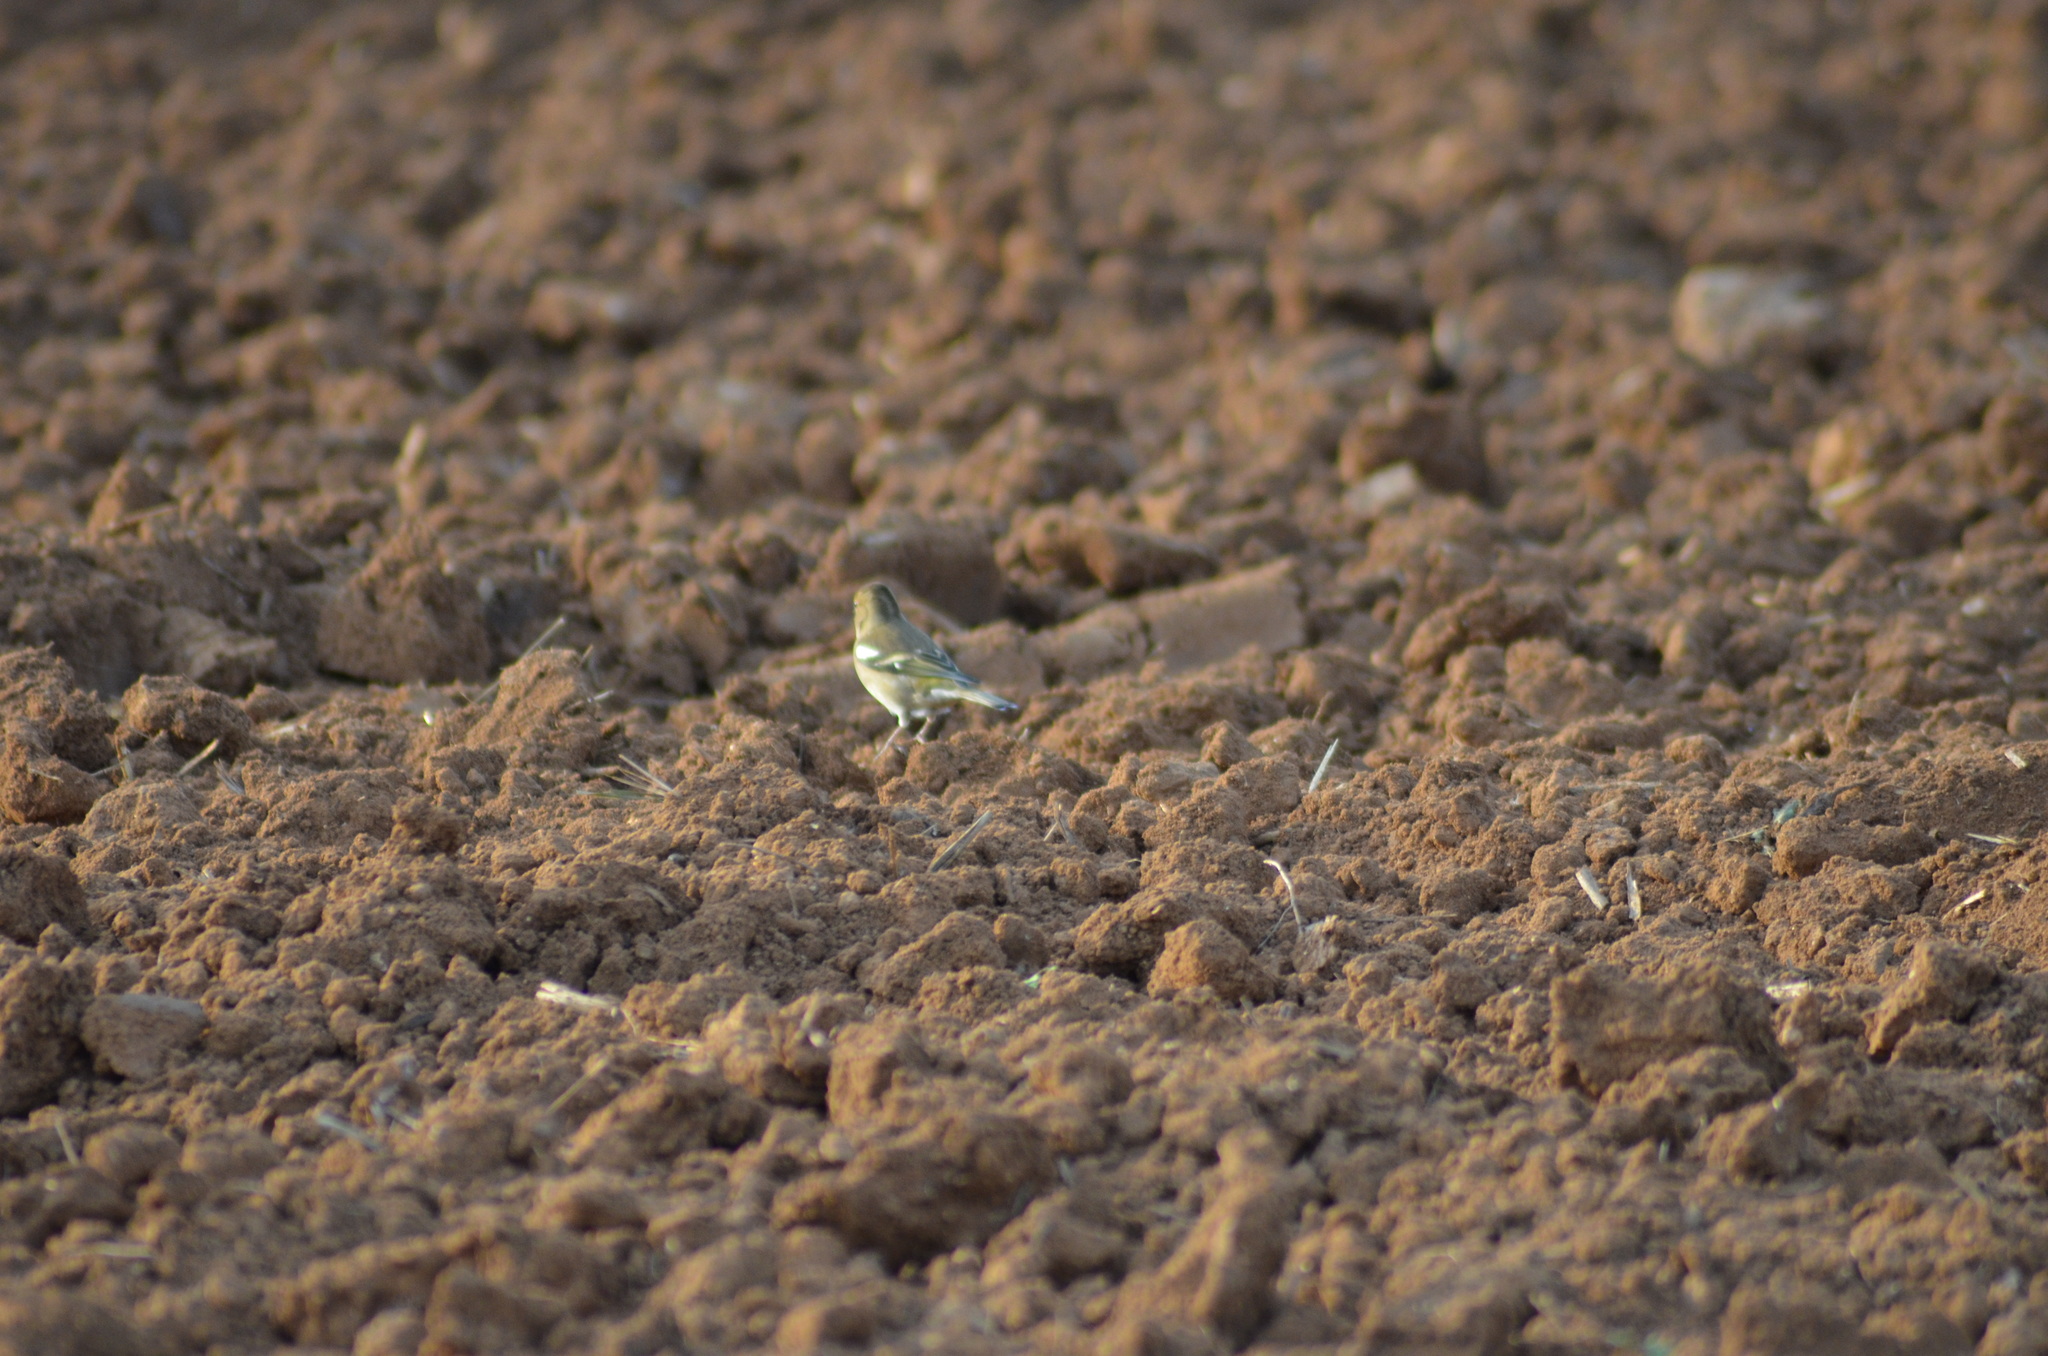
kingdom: Animalia
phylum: Chordata
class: Aves
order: Passeriformes
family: Fringillidae
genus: Fringilla
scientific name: Fringilla coelebs
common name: Common chaffinch
